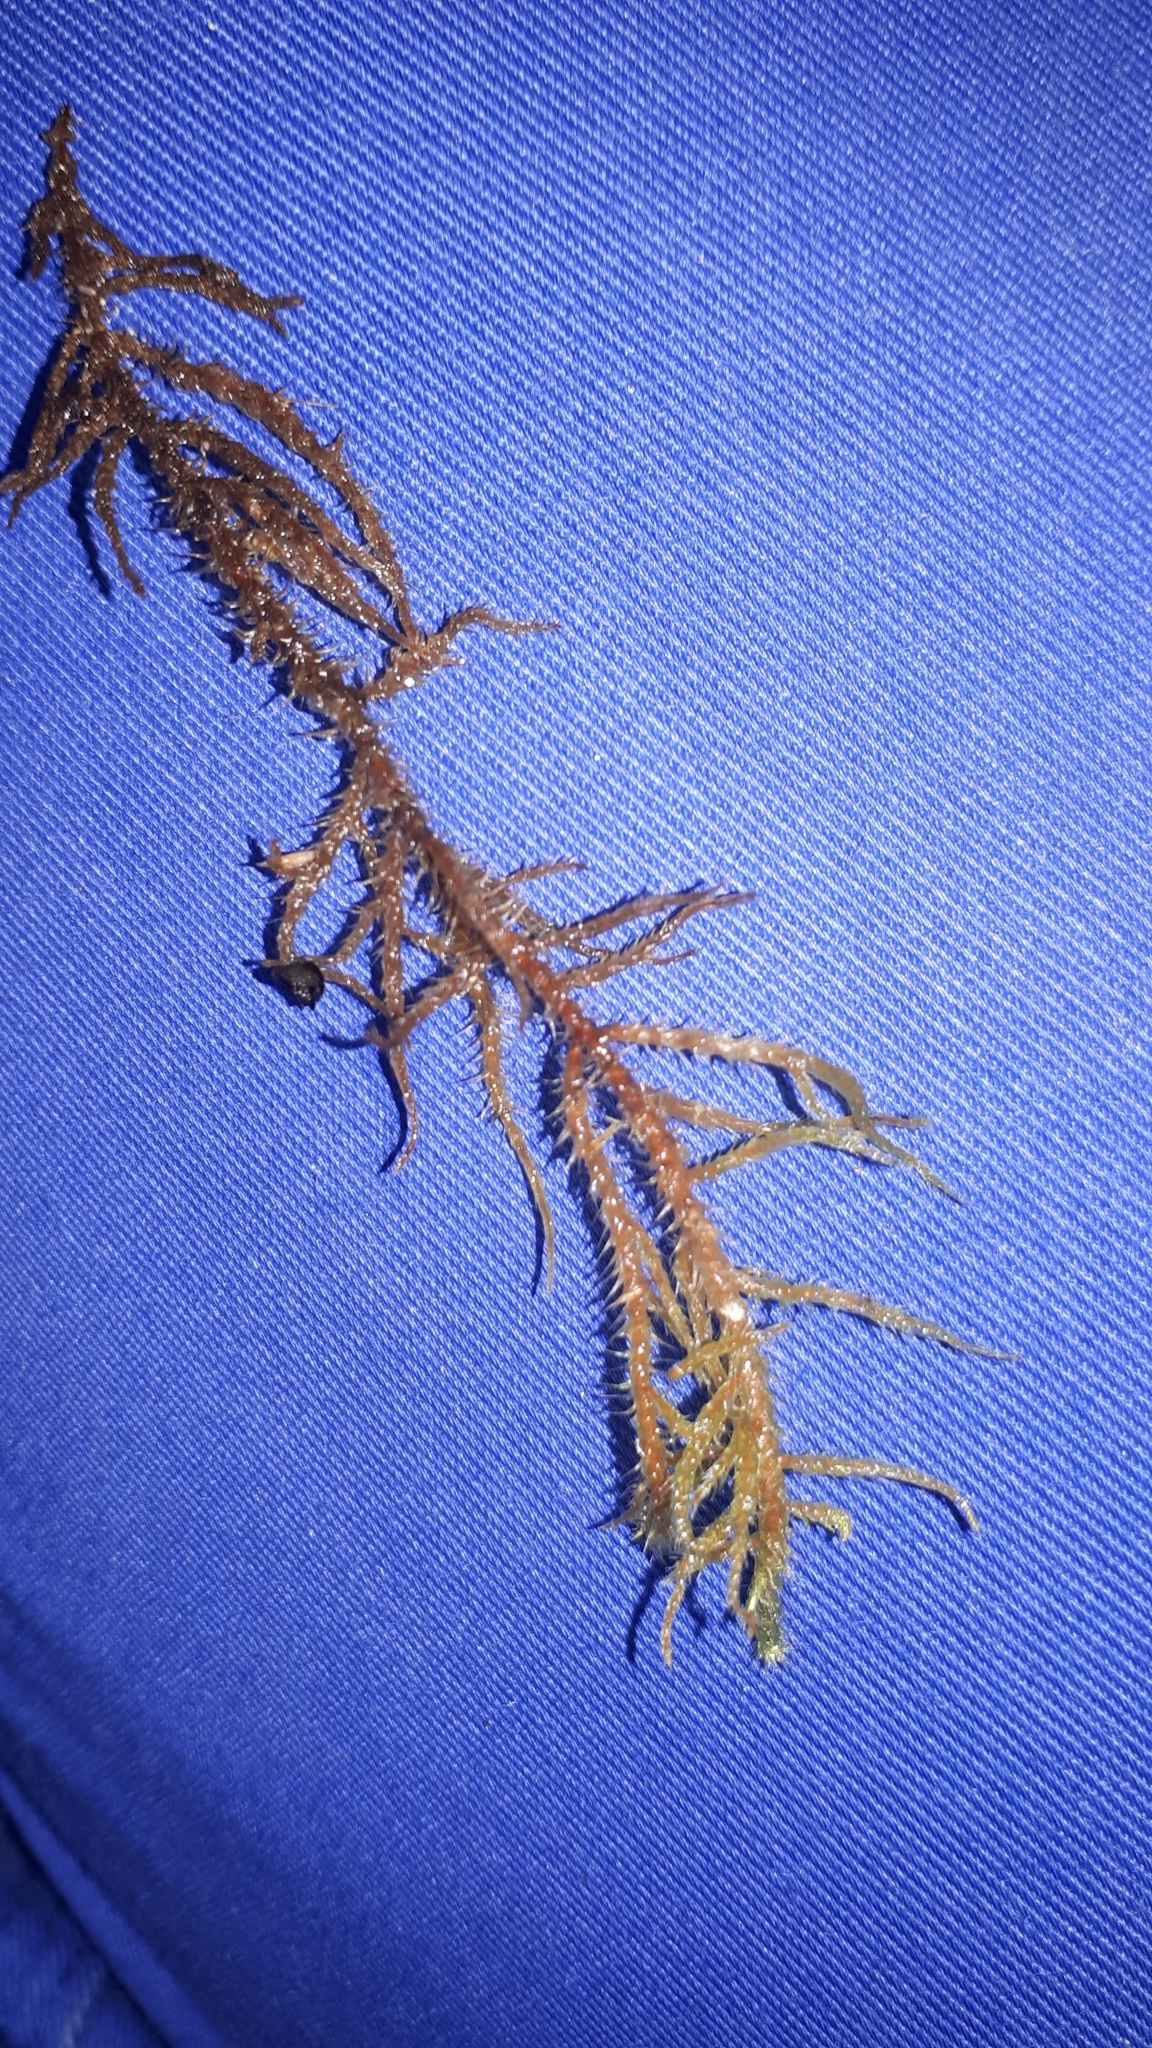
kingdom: Plantae
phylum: Bryophyta
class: Bryopsida
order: Hypnales
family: Hylocomiaceae
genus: Rhytidiadelphus
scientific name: Rhytidiadelphus squarrosus
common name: Springy turf-moss
